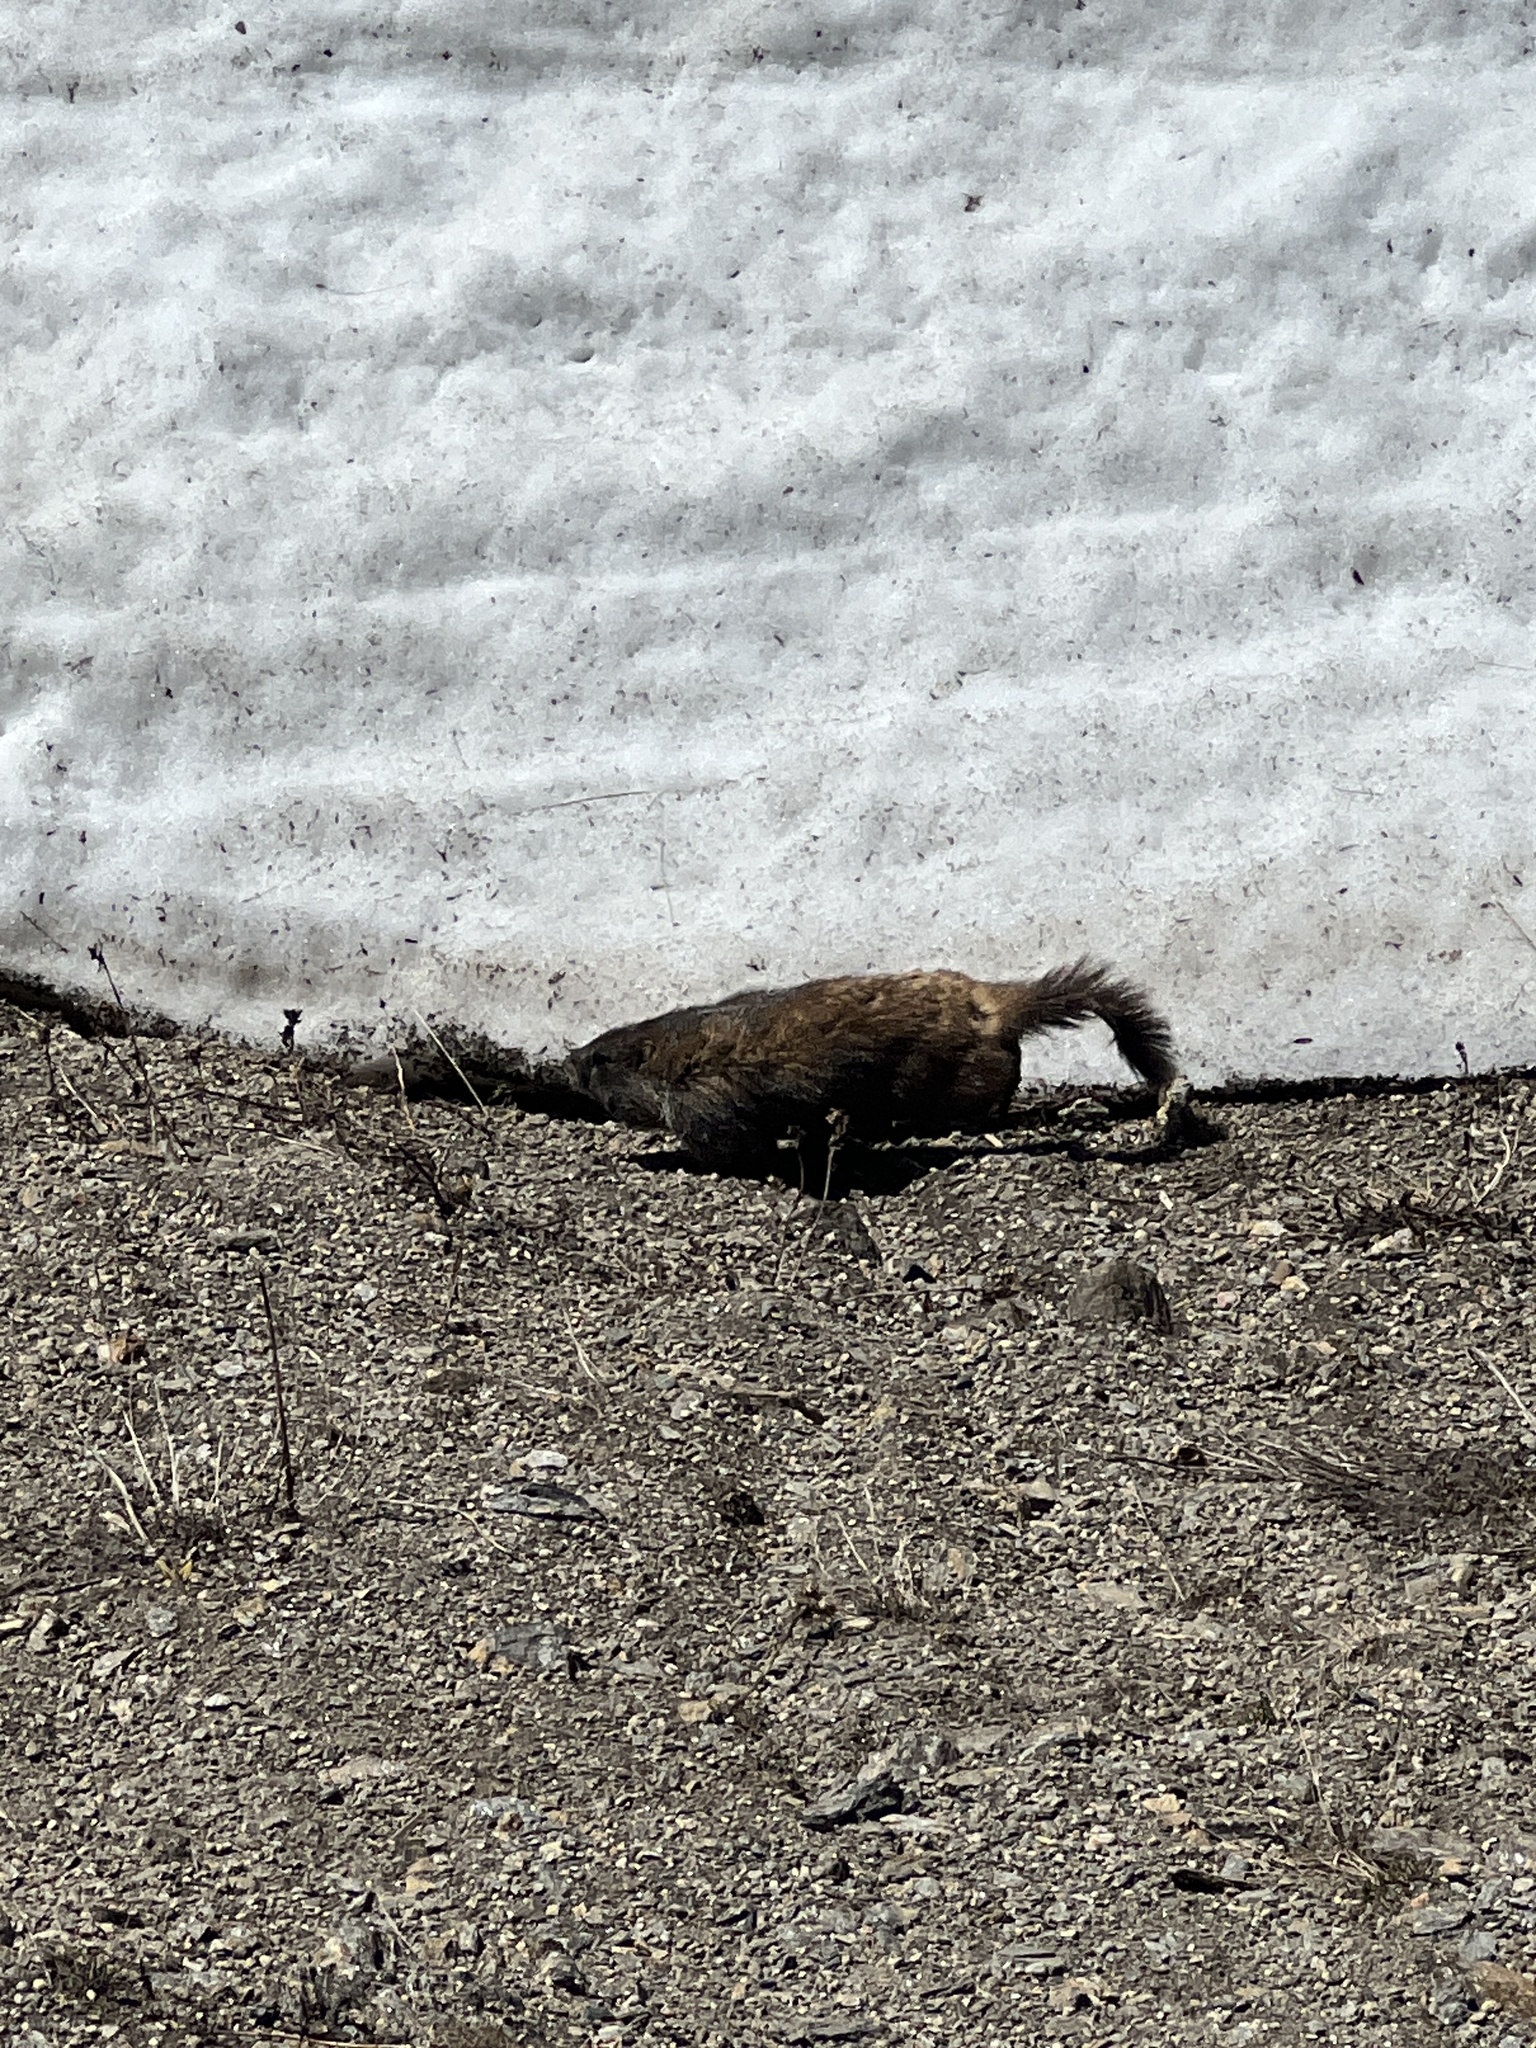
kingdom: Animalia
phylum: Chordata
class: Mammalia
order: Rodentia
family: Sciuridae
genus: Marmota
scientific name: Marmota flaviventris
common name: Yellow-bellied marmot
